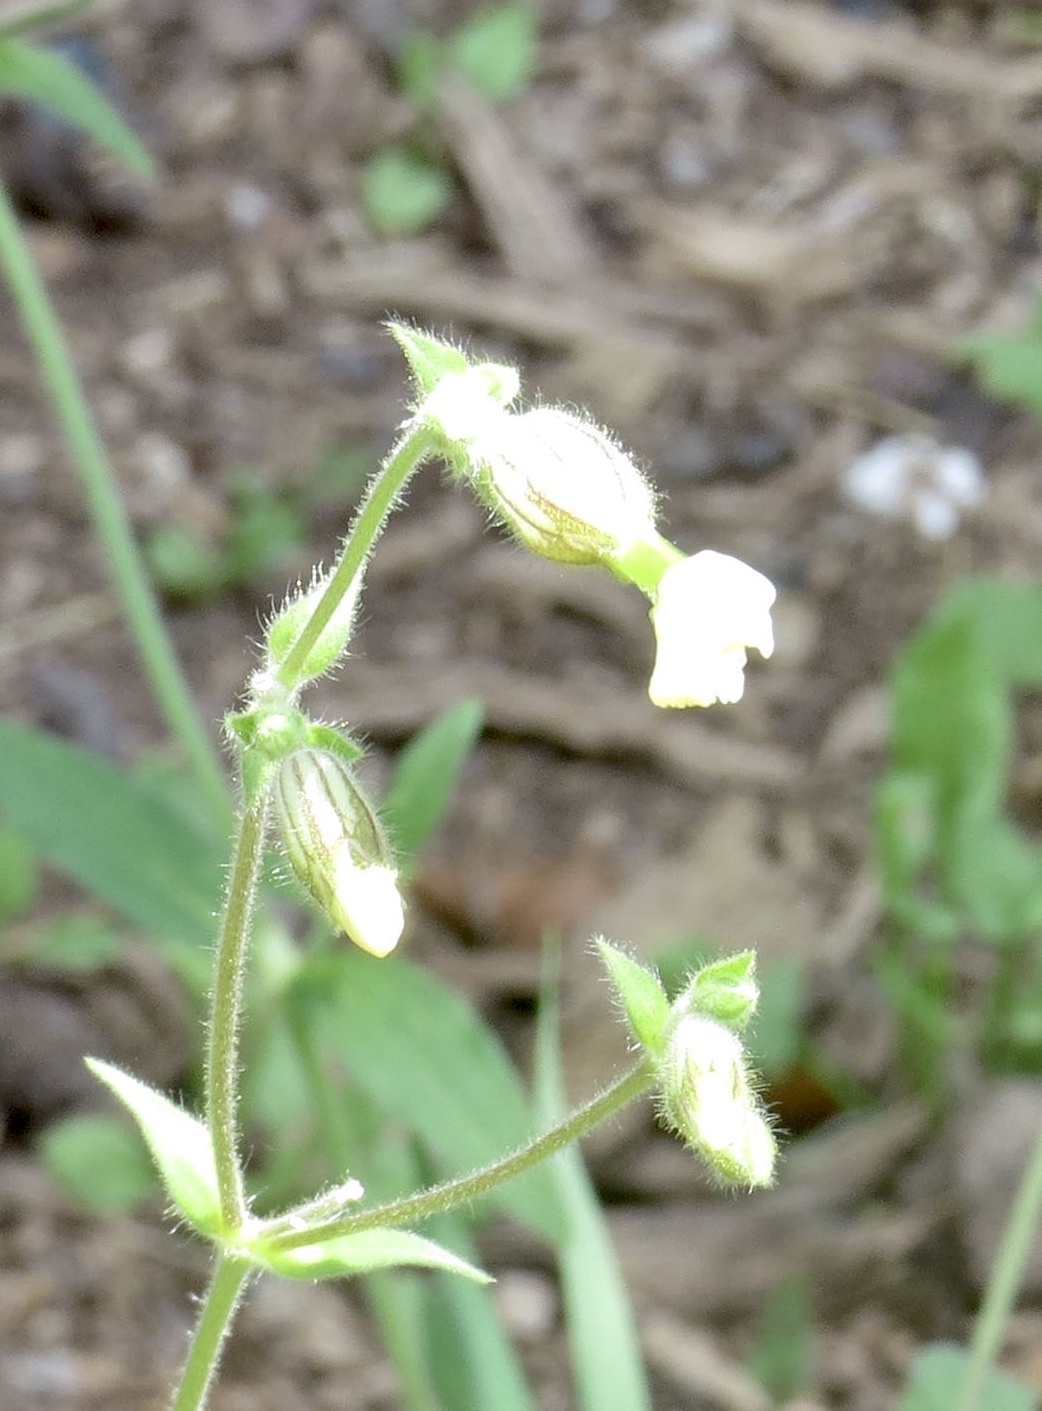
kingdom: Plantae
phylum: Tracheophyta
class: Magnoliopsida
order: Caryophyllales
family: Caryophyllaceae
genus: Silene
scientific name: Silene latifolia
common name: White campion
